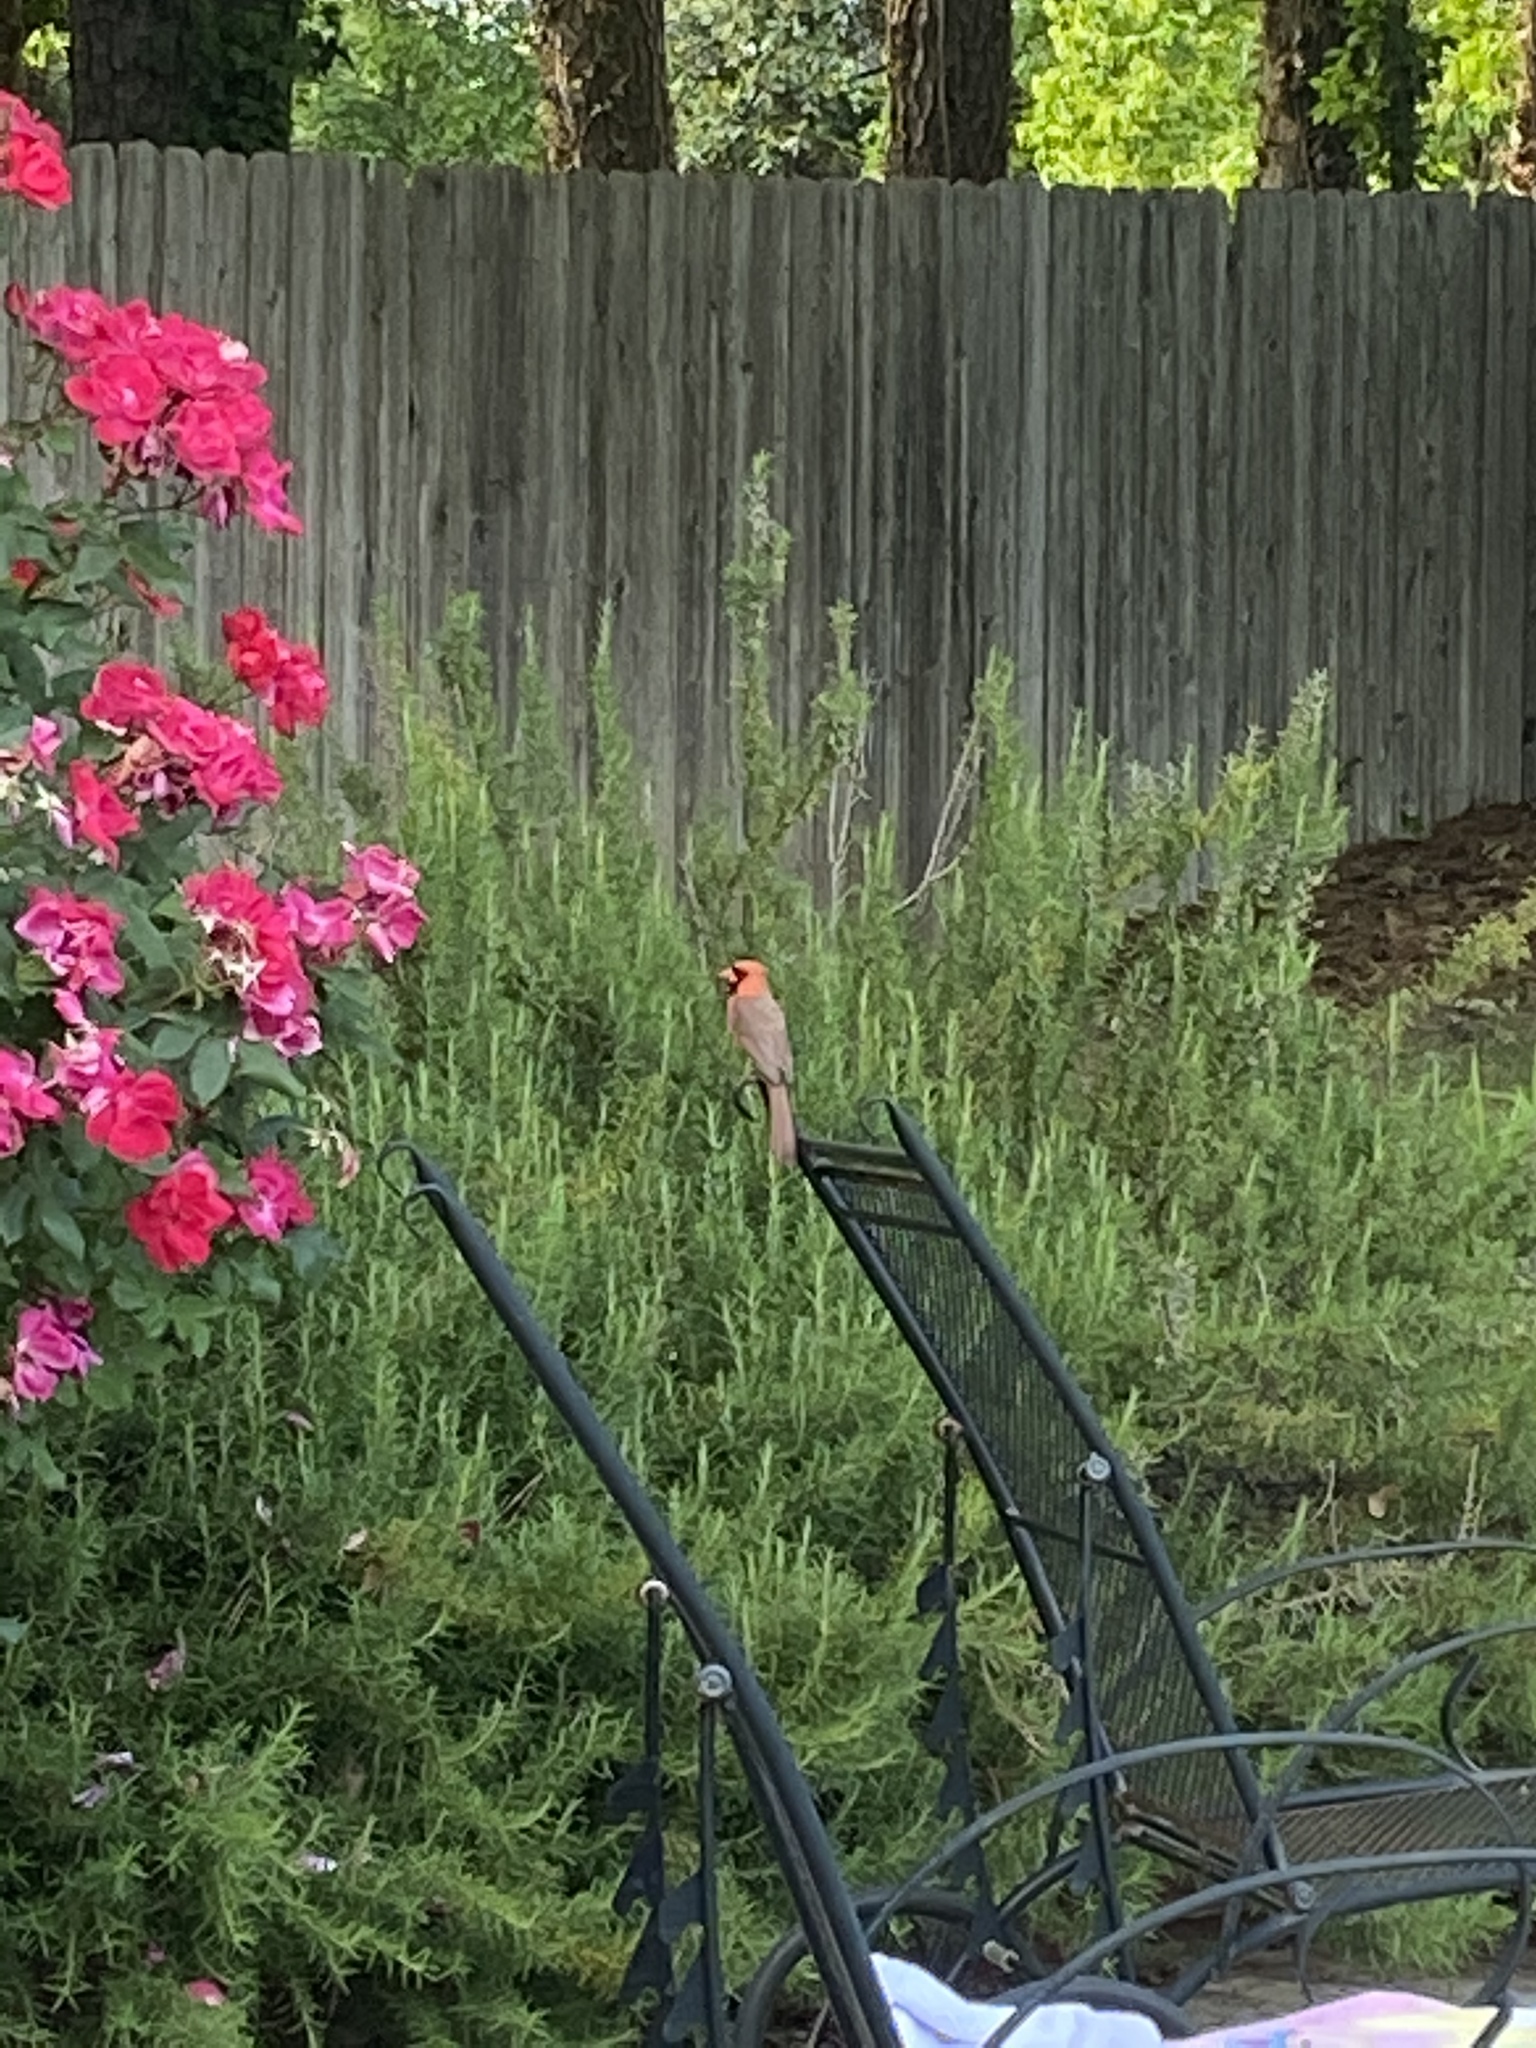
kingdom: Animalia
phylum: Chordata
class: Aves
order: Passeriformes
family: Cardinalidae
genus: Cardinalis
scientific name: Cardinalis cardinalis
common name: Northern cardinal
